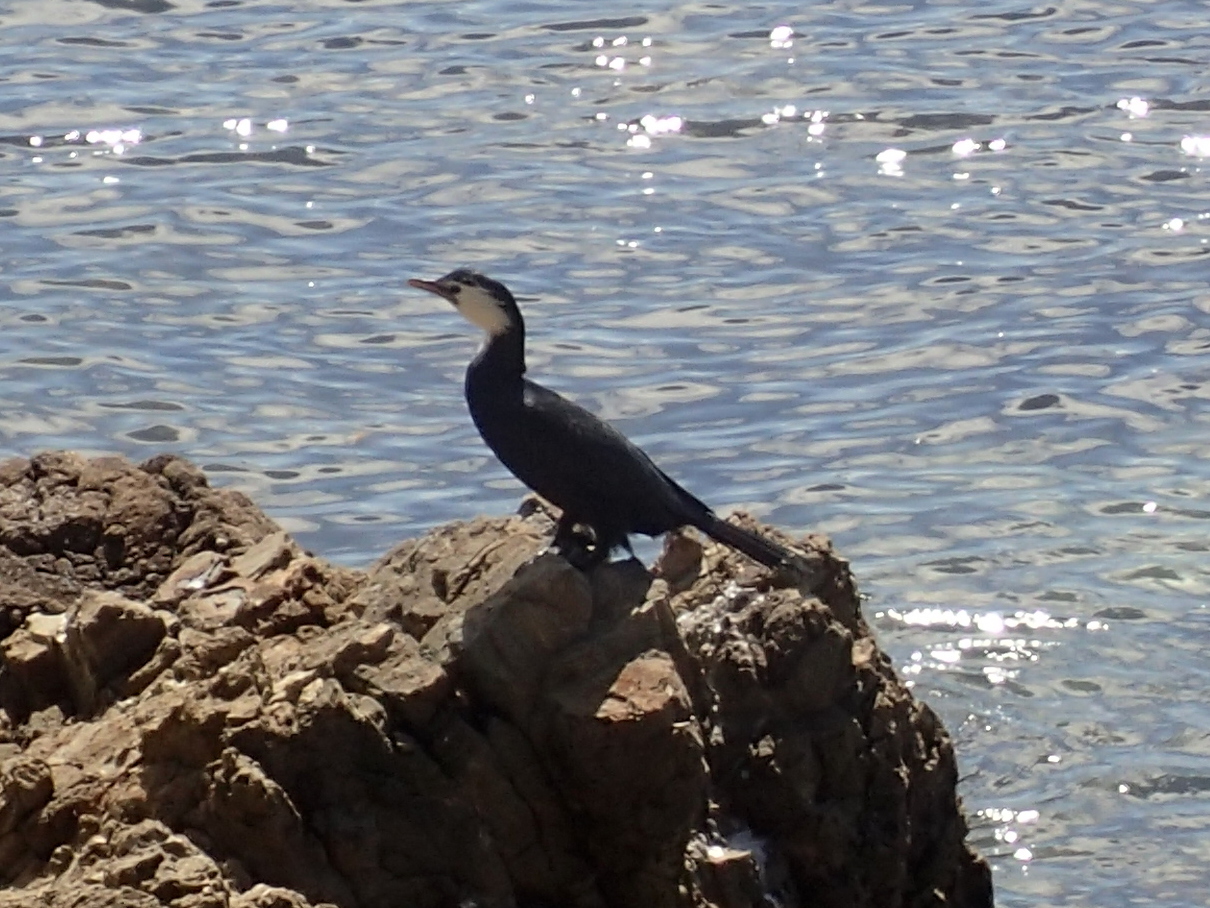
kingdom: Animalia
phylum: Chordata
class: Aves
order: Suliformes
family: Phalacrocoracidae
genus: Microcarbo
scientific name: Microcarbo melanoleucos
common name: Little pied cormorant
